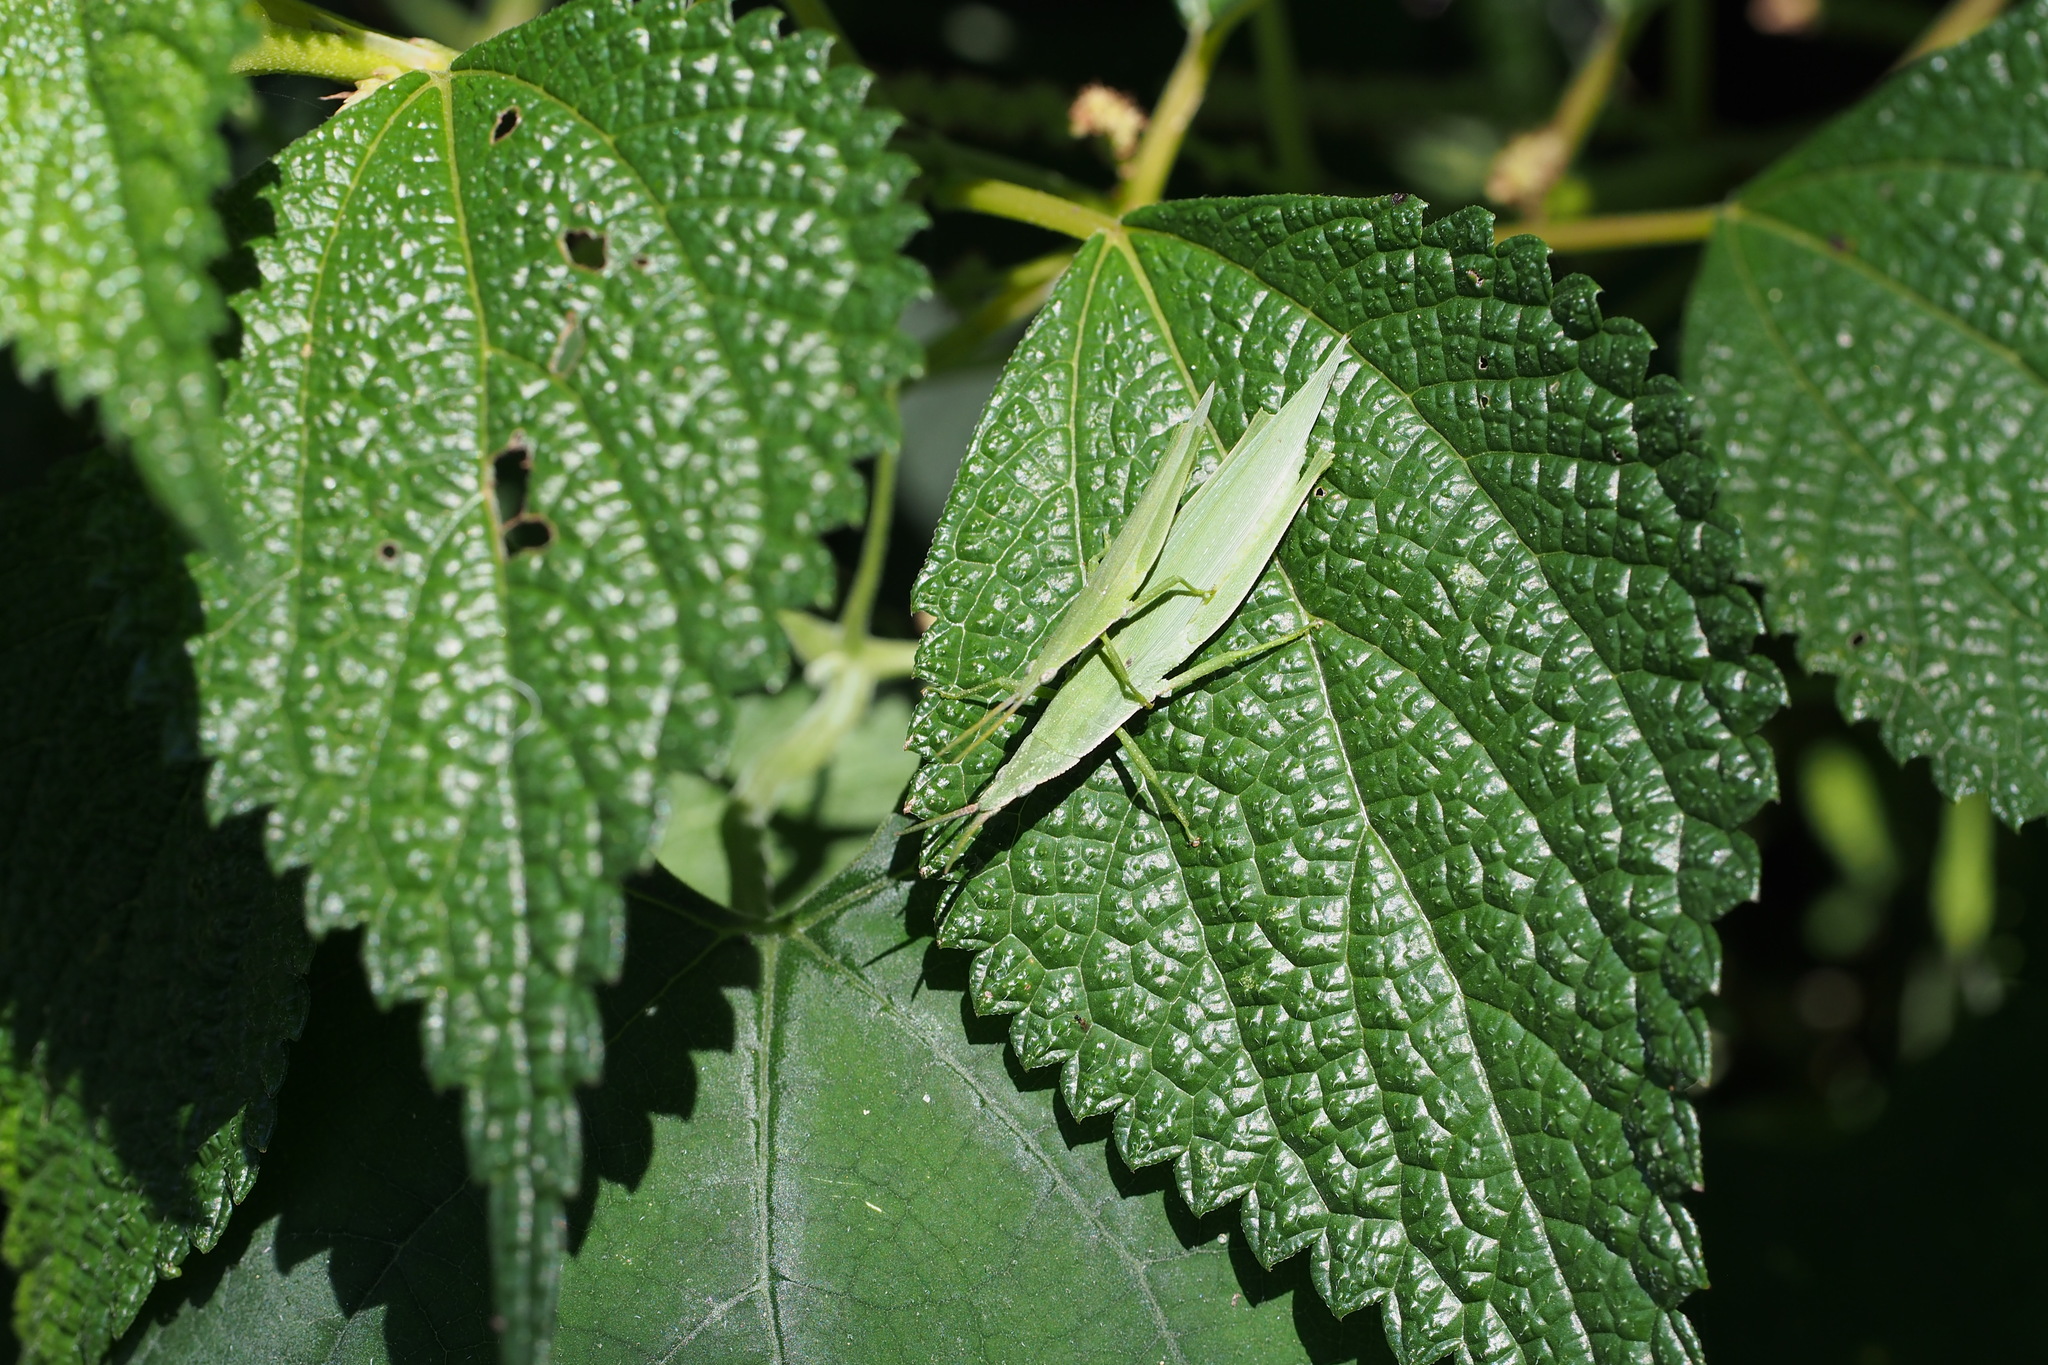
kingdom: Animalia
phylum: Arthropoda
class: Insecta
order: Orthoptera
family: Pyrgomorphidae
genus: Atractomorpha
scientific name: Atractomorpha lata
